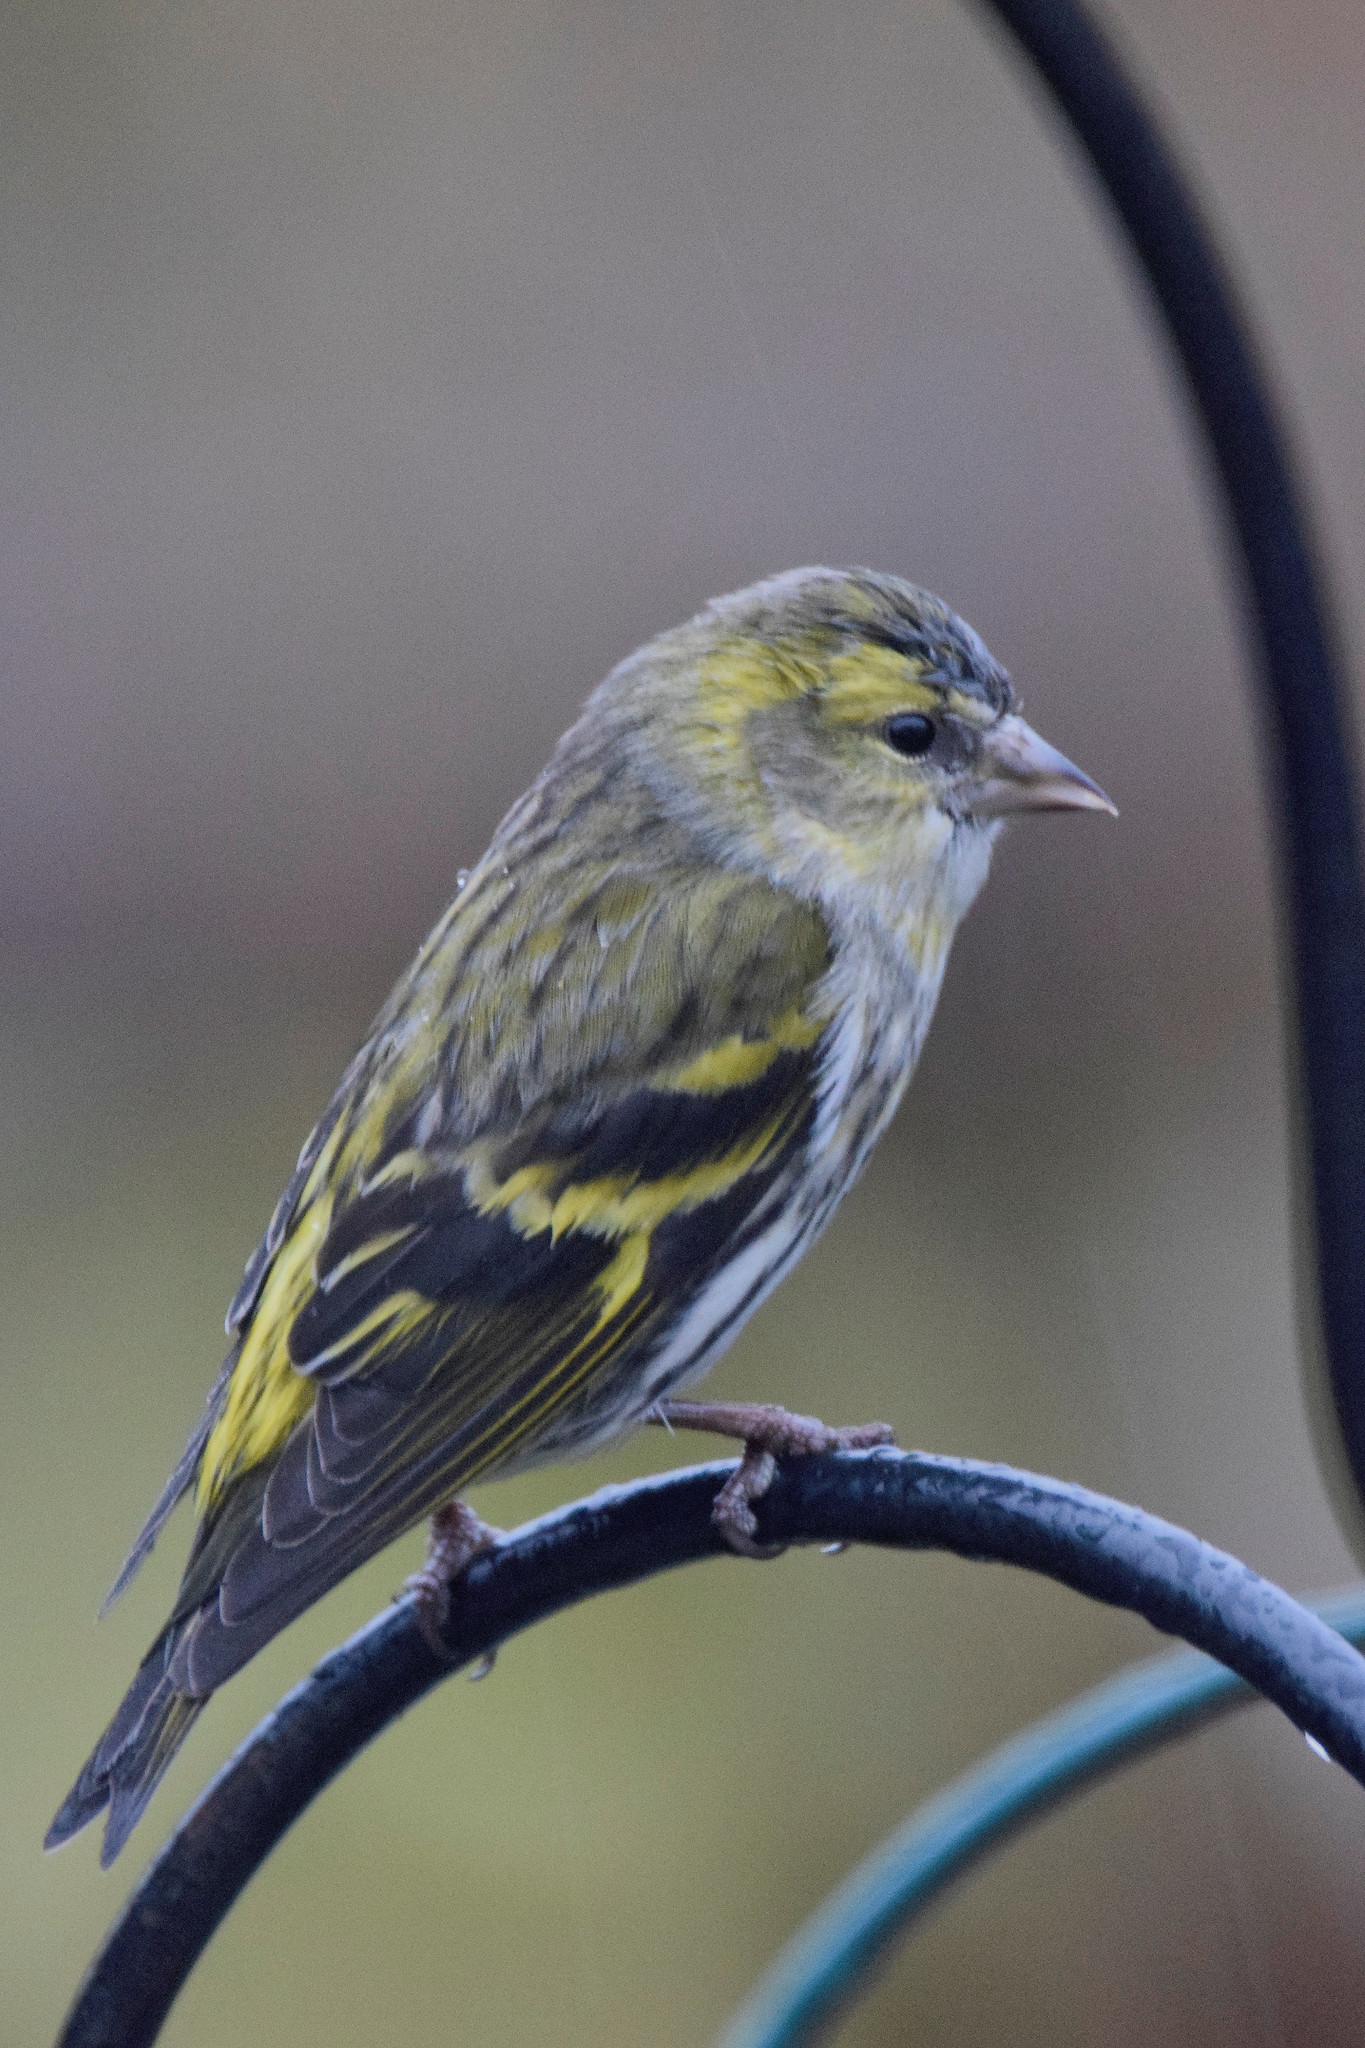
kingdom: Animalia
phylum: Chordata
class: Aves
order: Passeriformes
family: Fringillidae
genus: Spinus
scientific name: Spinus spinus
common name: Eurasian siskin
